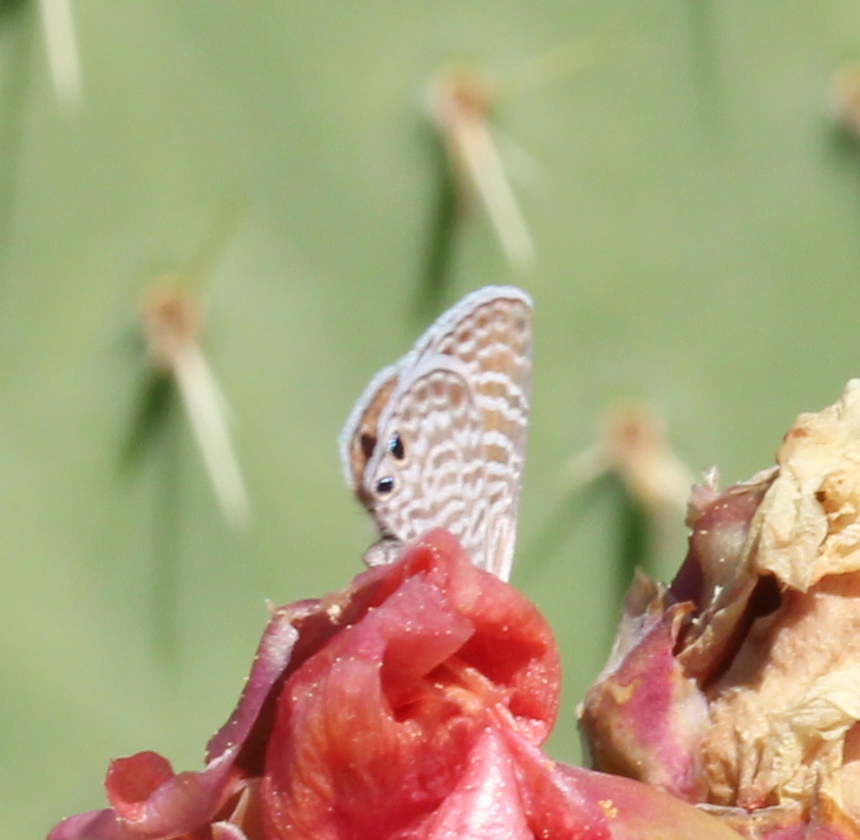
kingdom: Animalia
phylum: Arthropoda
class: Insecta
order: Lepidoptera
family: Lycaenidae
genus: Leptotes
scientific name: Leptotes marina
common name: Marine blue
